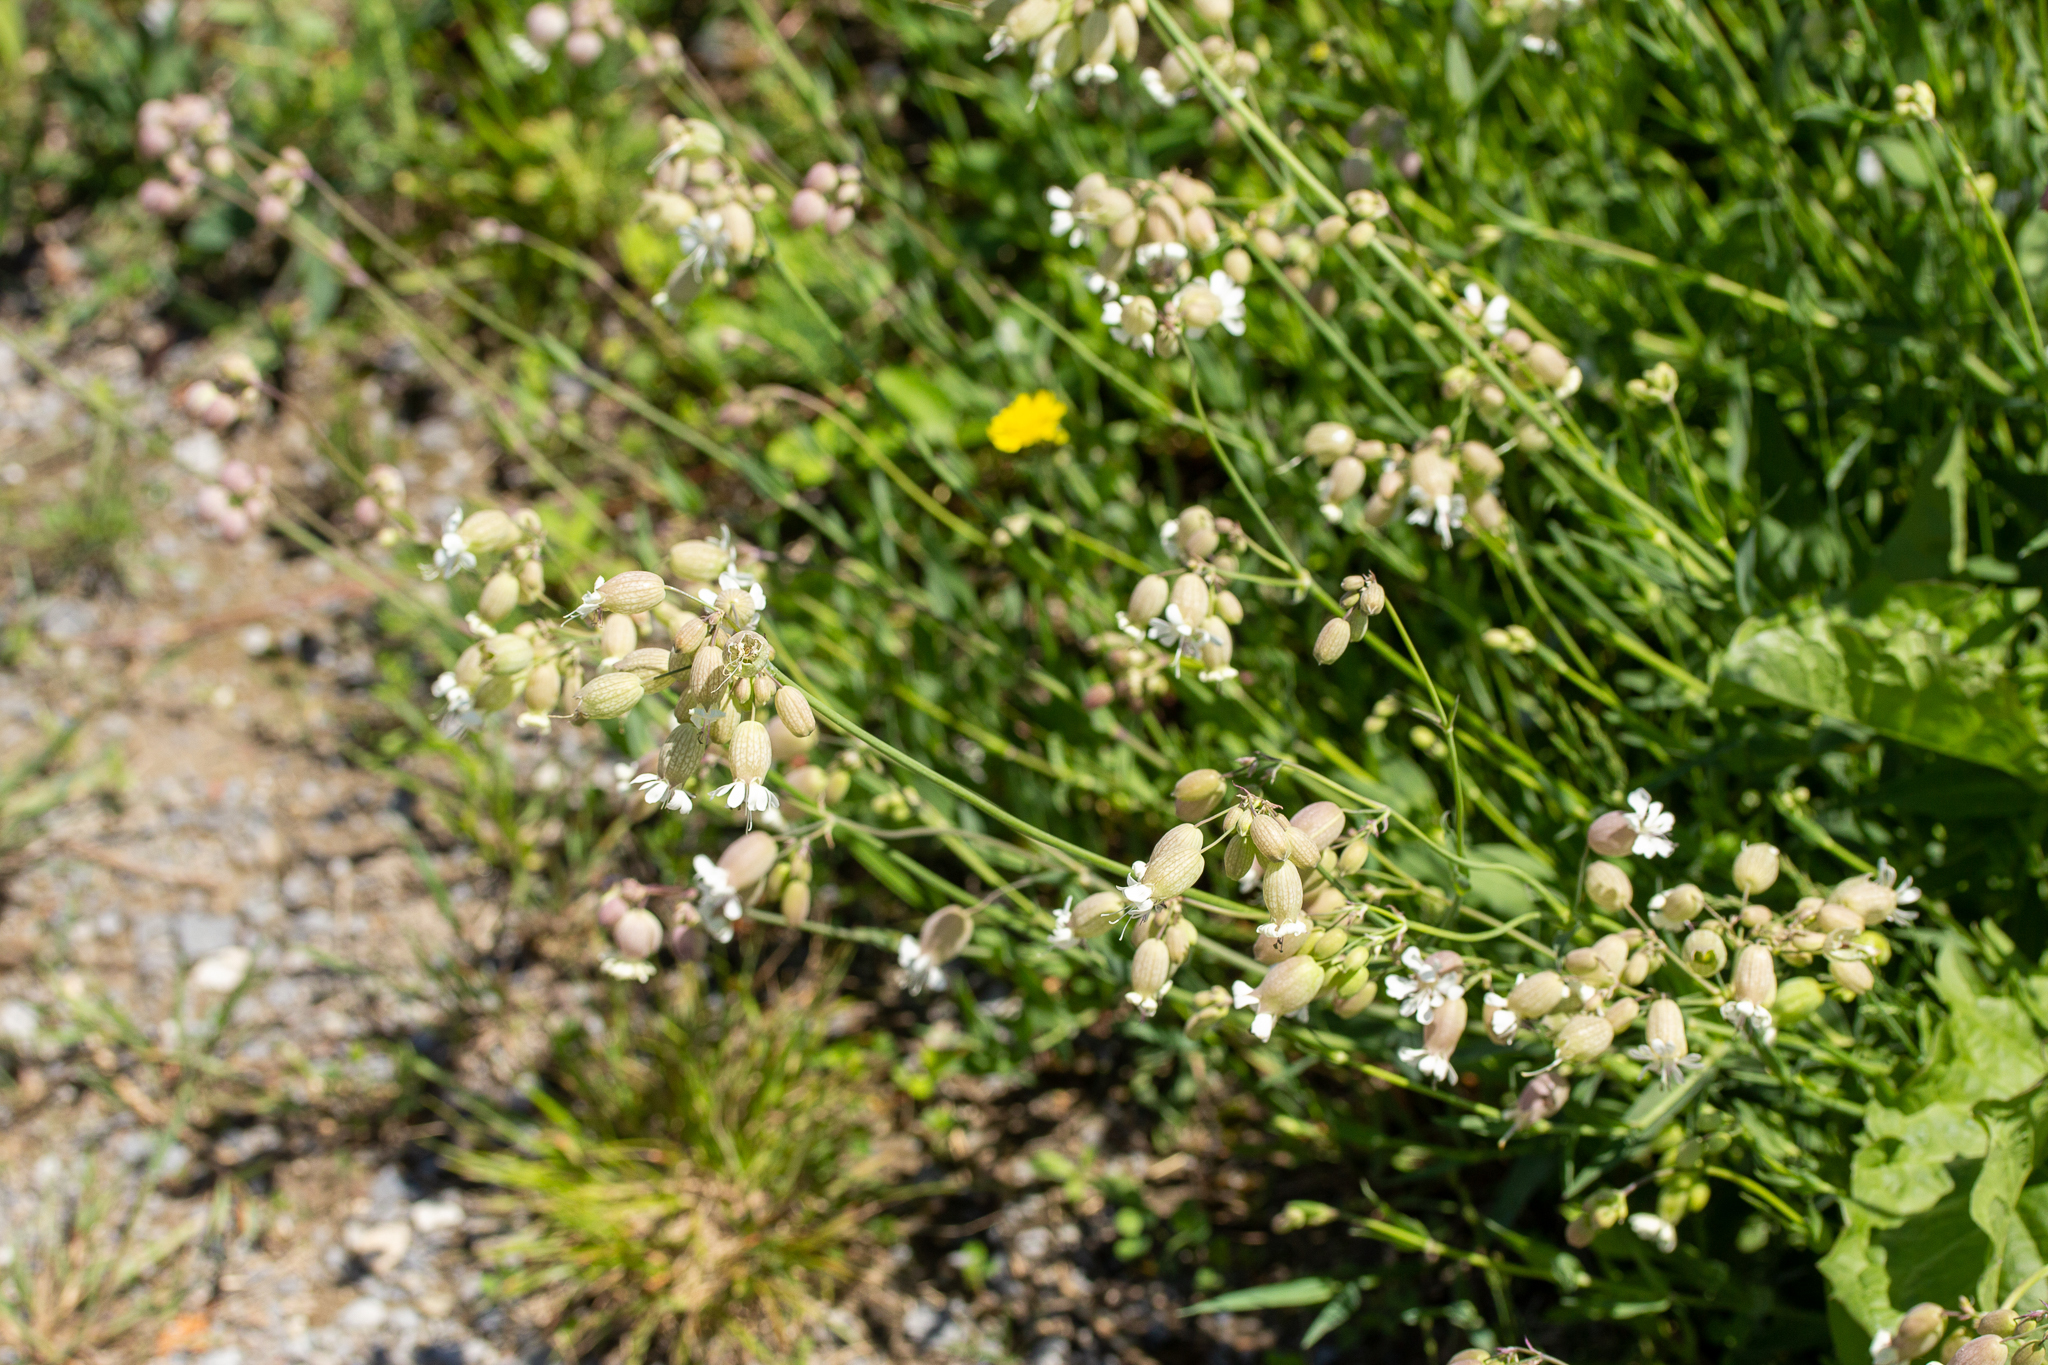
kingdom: Plantae
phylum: Tracheophyta
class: Magnoliopsida
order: Caryophyllales
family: Caryophyllaceae
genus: Silene
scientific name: Silene vulgaris
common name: Bladder campion
